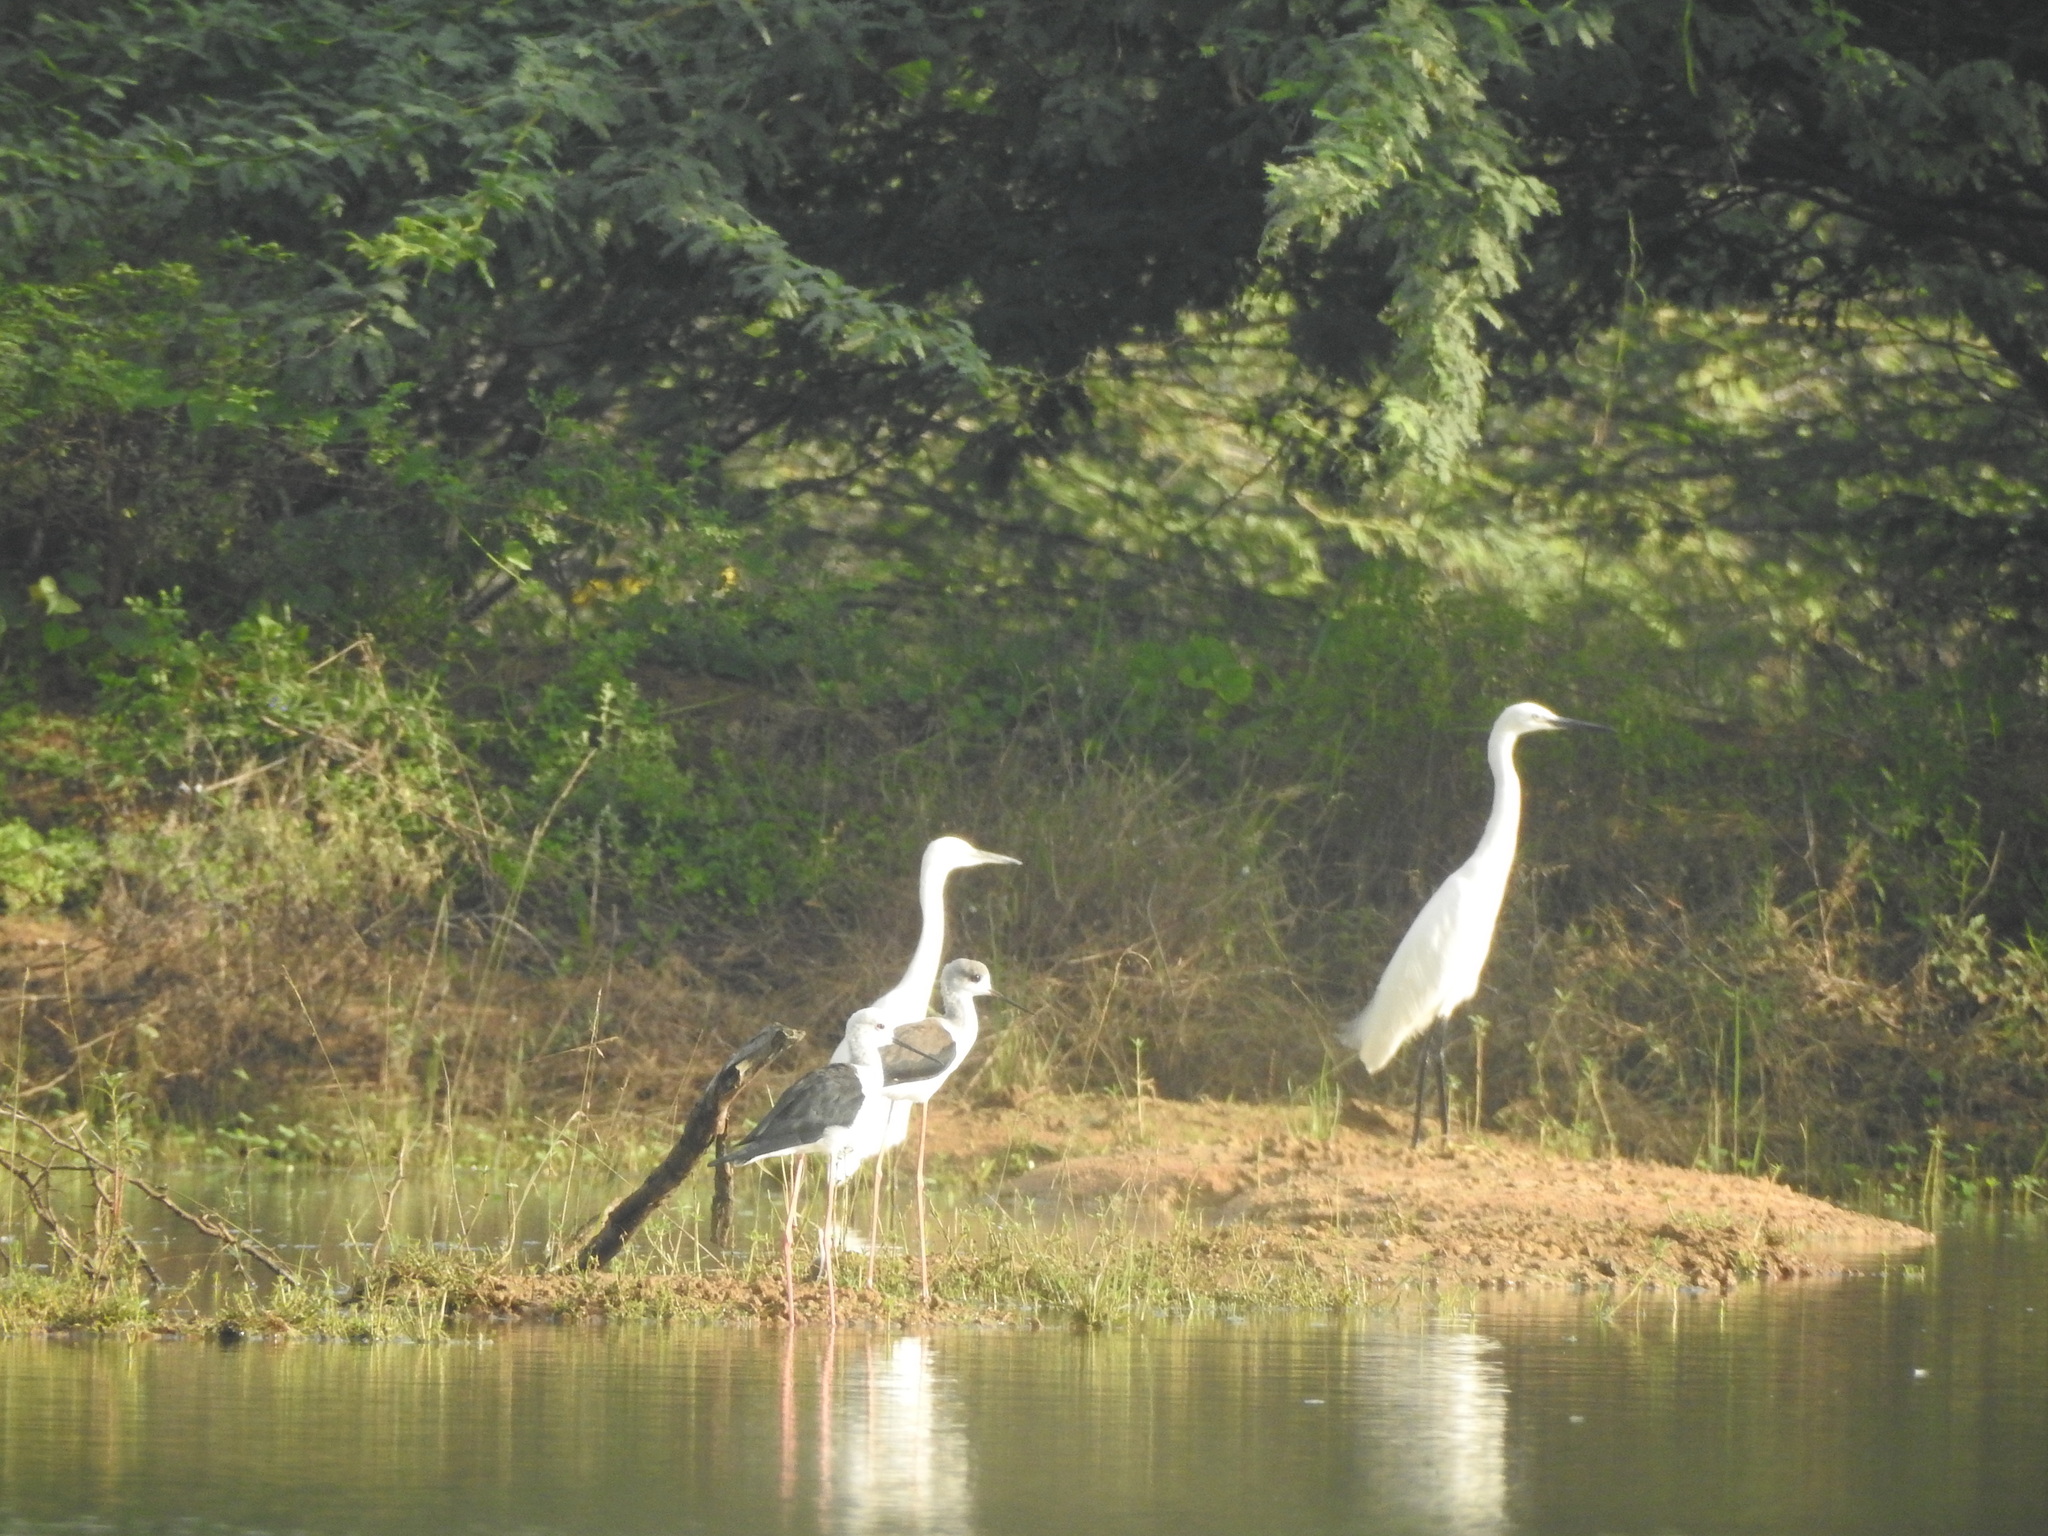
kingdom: Animalia
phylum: Chordata
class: Aves
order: Pelecaniformes
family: Ardeidae
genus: Egretta
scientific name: Egretta garzetta
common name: Little egret
